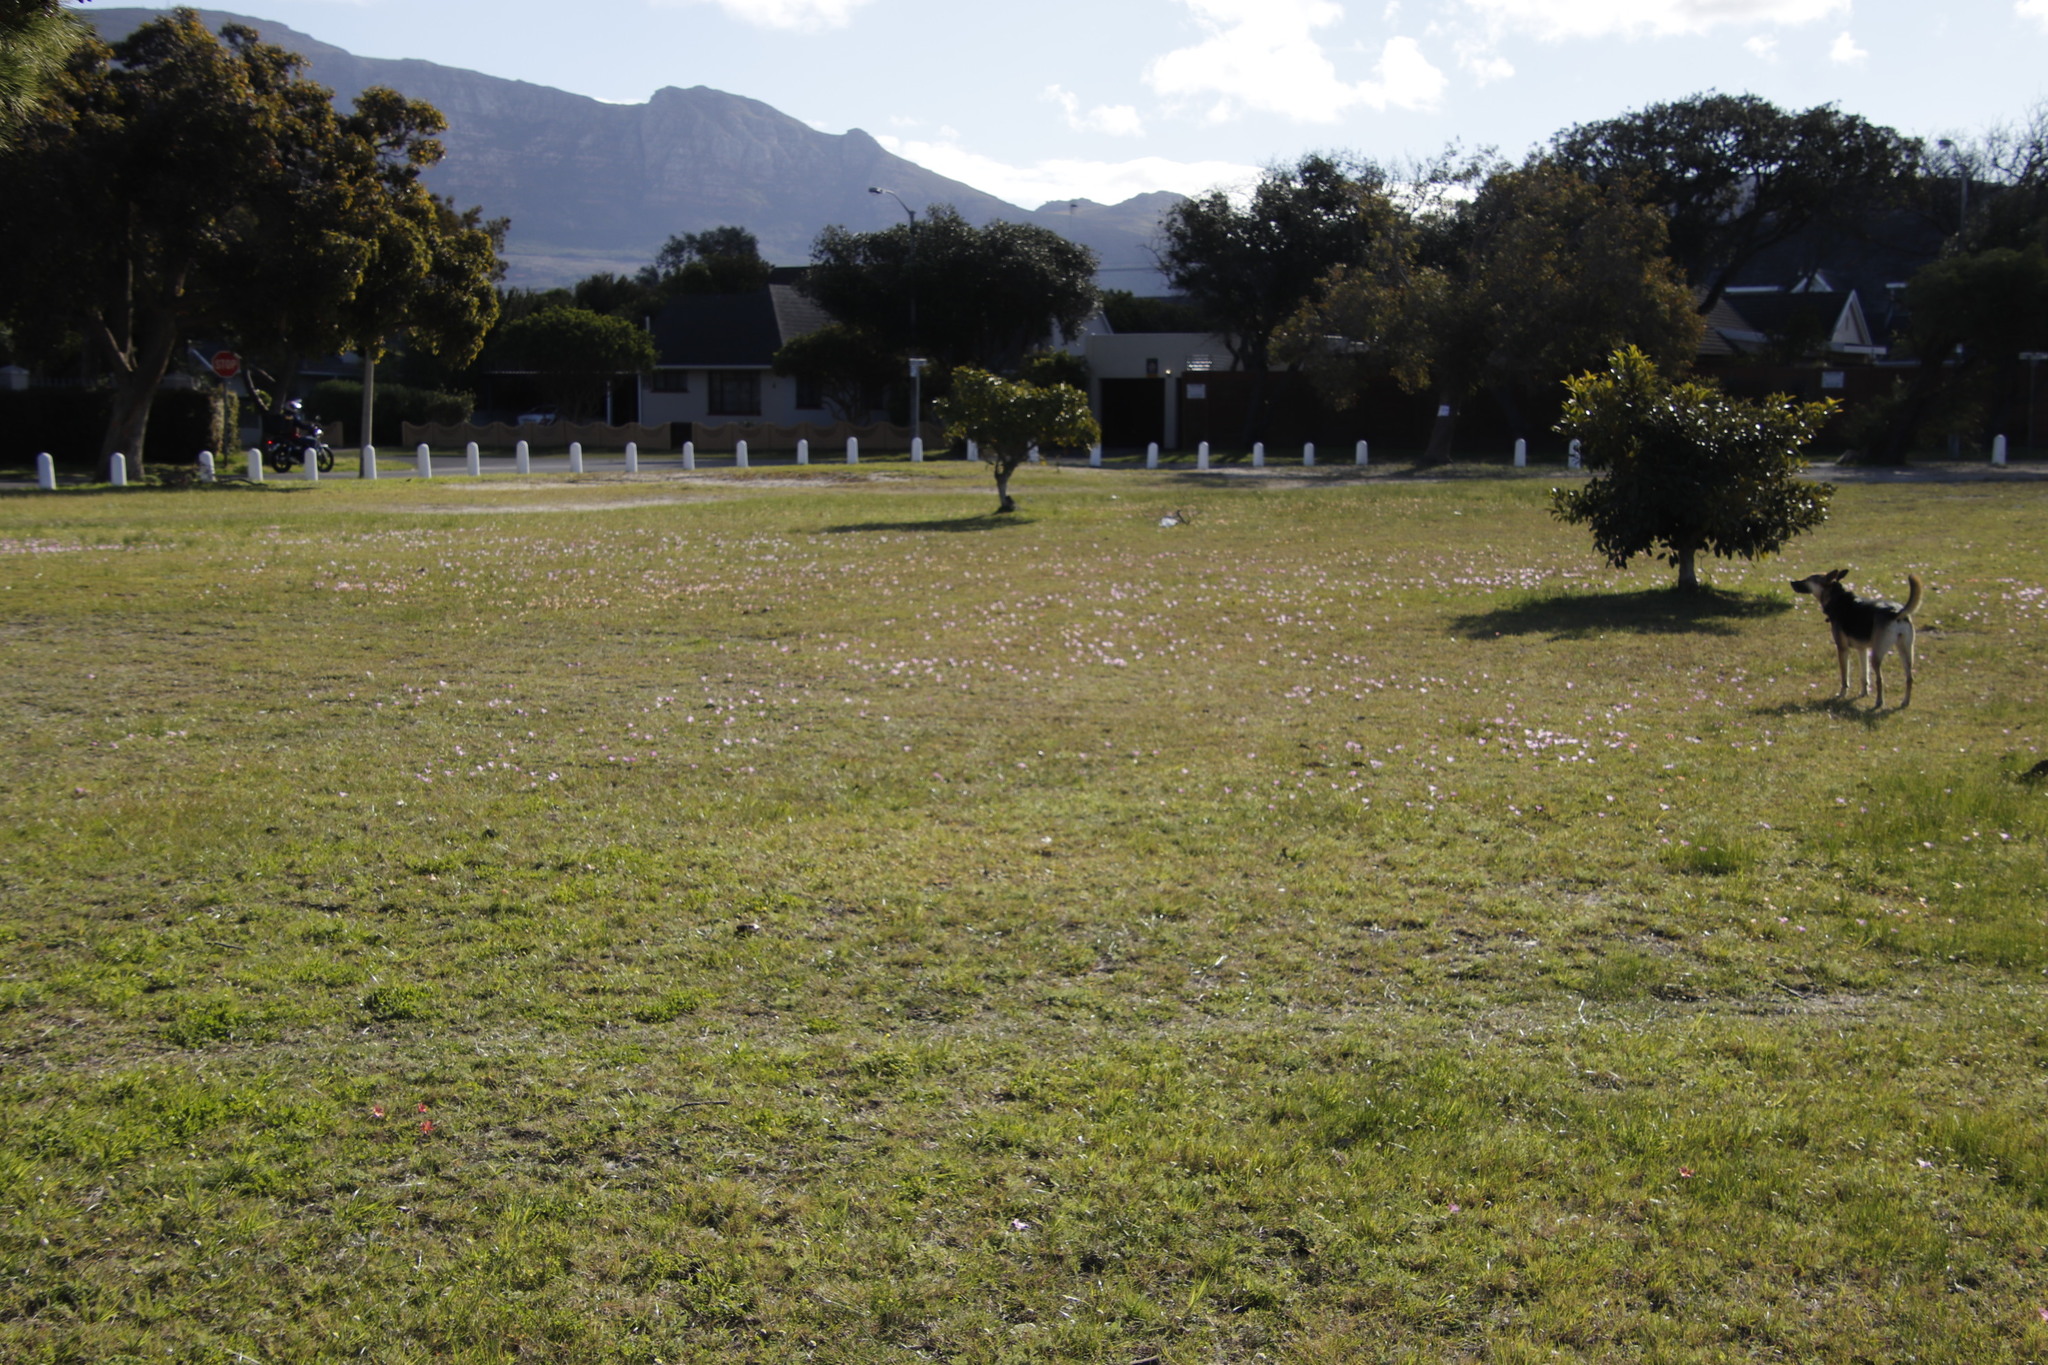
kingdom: Plantae
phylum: Tracheophyta
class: Magnoliopsida
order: Oxalidales
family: Oxalidaceae
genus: Oxalis
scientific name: Oxalis purpurea
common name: Purple woodsorrel
